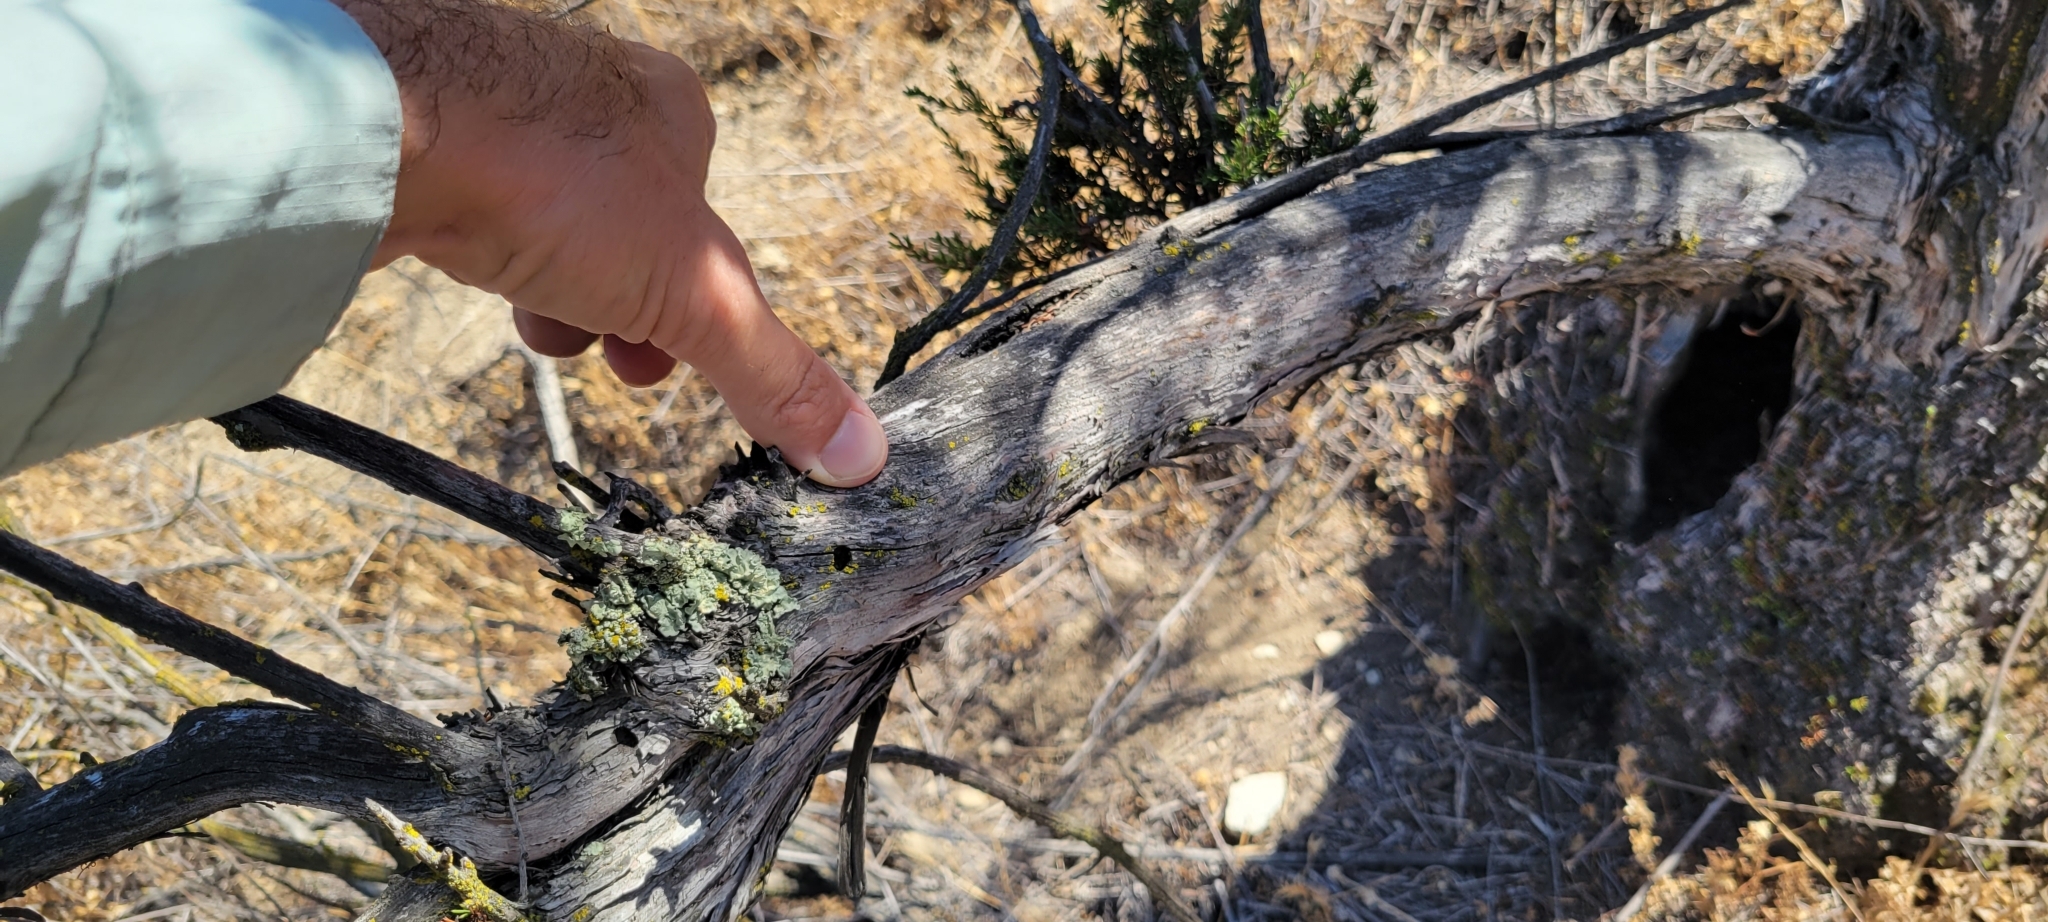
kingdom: Plantae
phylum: Tracheophyta
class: Magnoliopsida
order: Rosales
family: Rosaceae
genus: Adenostoma
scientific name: Adenostoma fasciculatum
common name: Chamise
